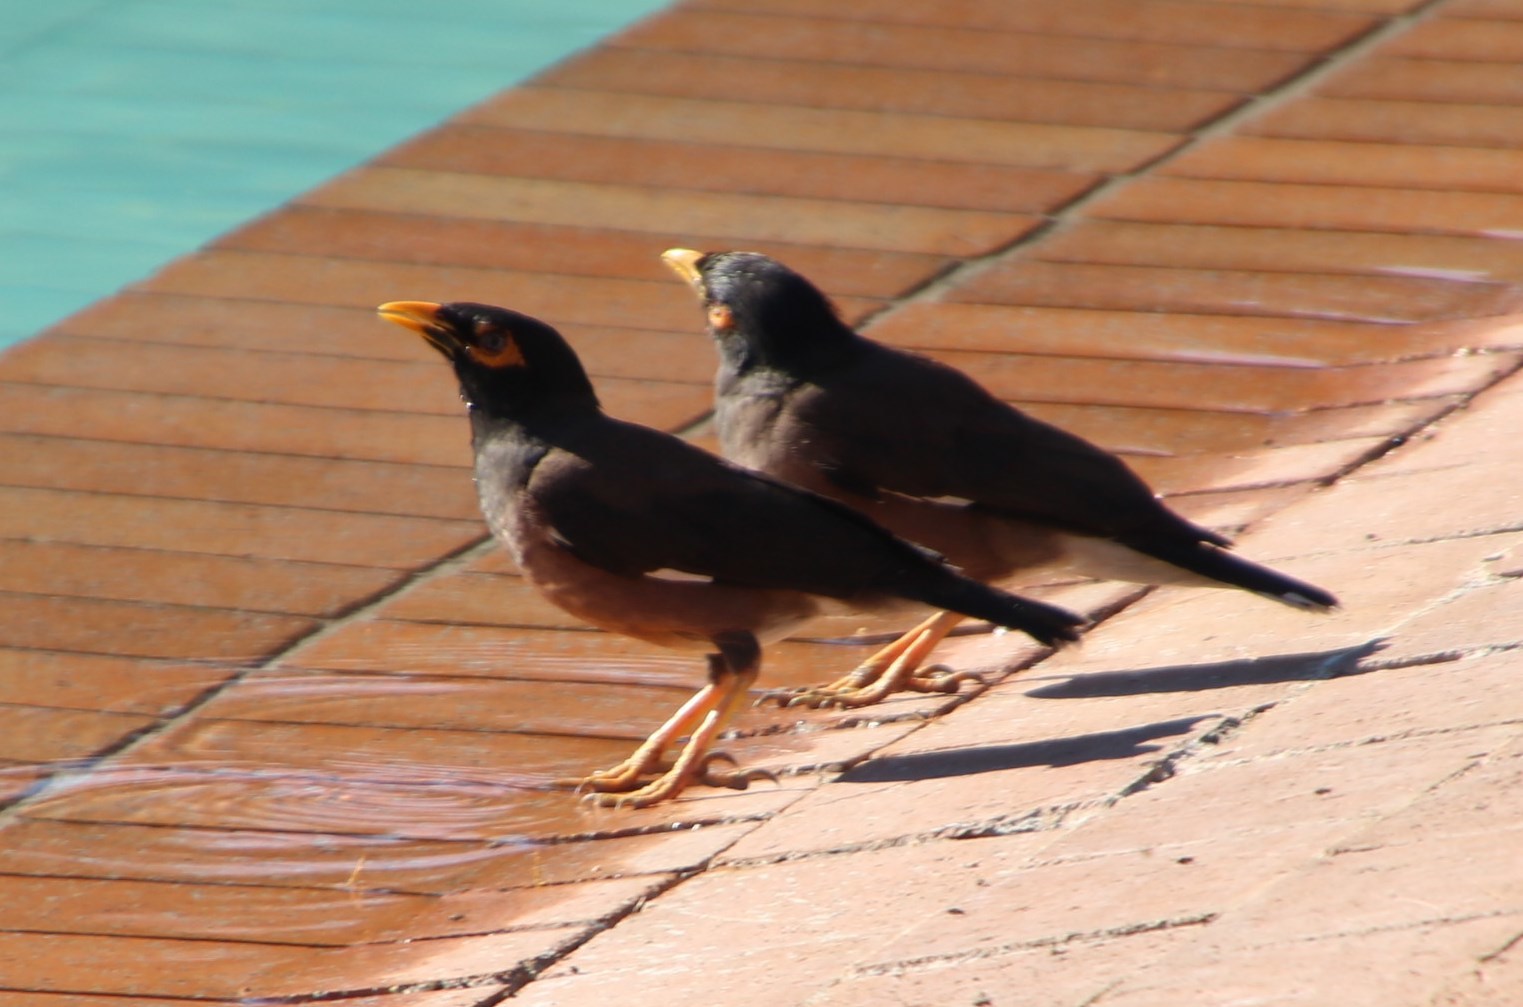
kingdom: Animalia
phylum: Chordata
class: Aves
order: Passeriformes
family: Sturnidae
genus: Acridotheres
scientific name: Acridotheres tristis
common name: Common myna
